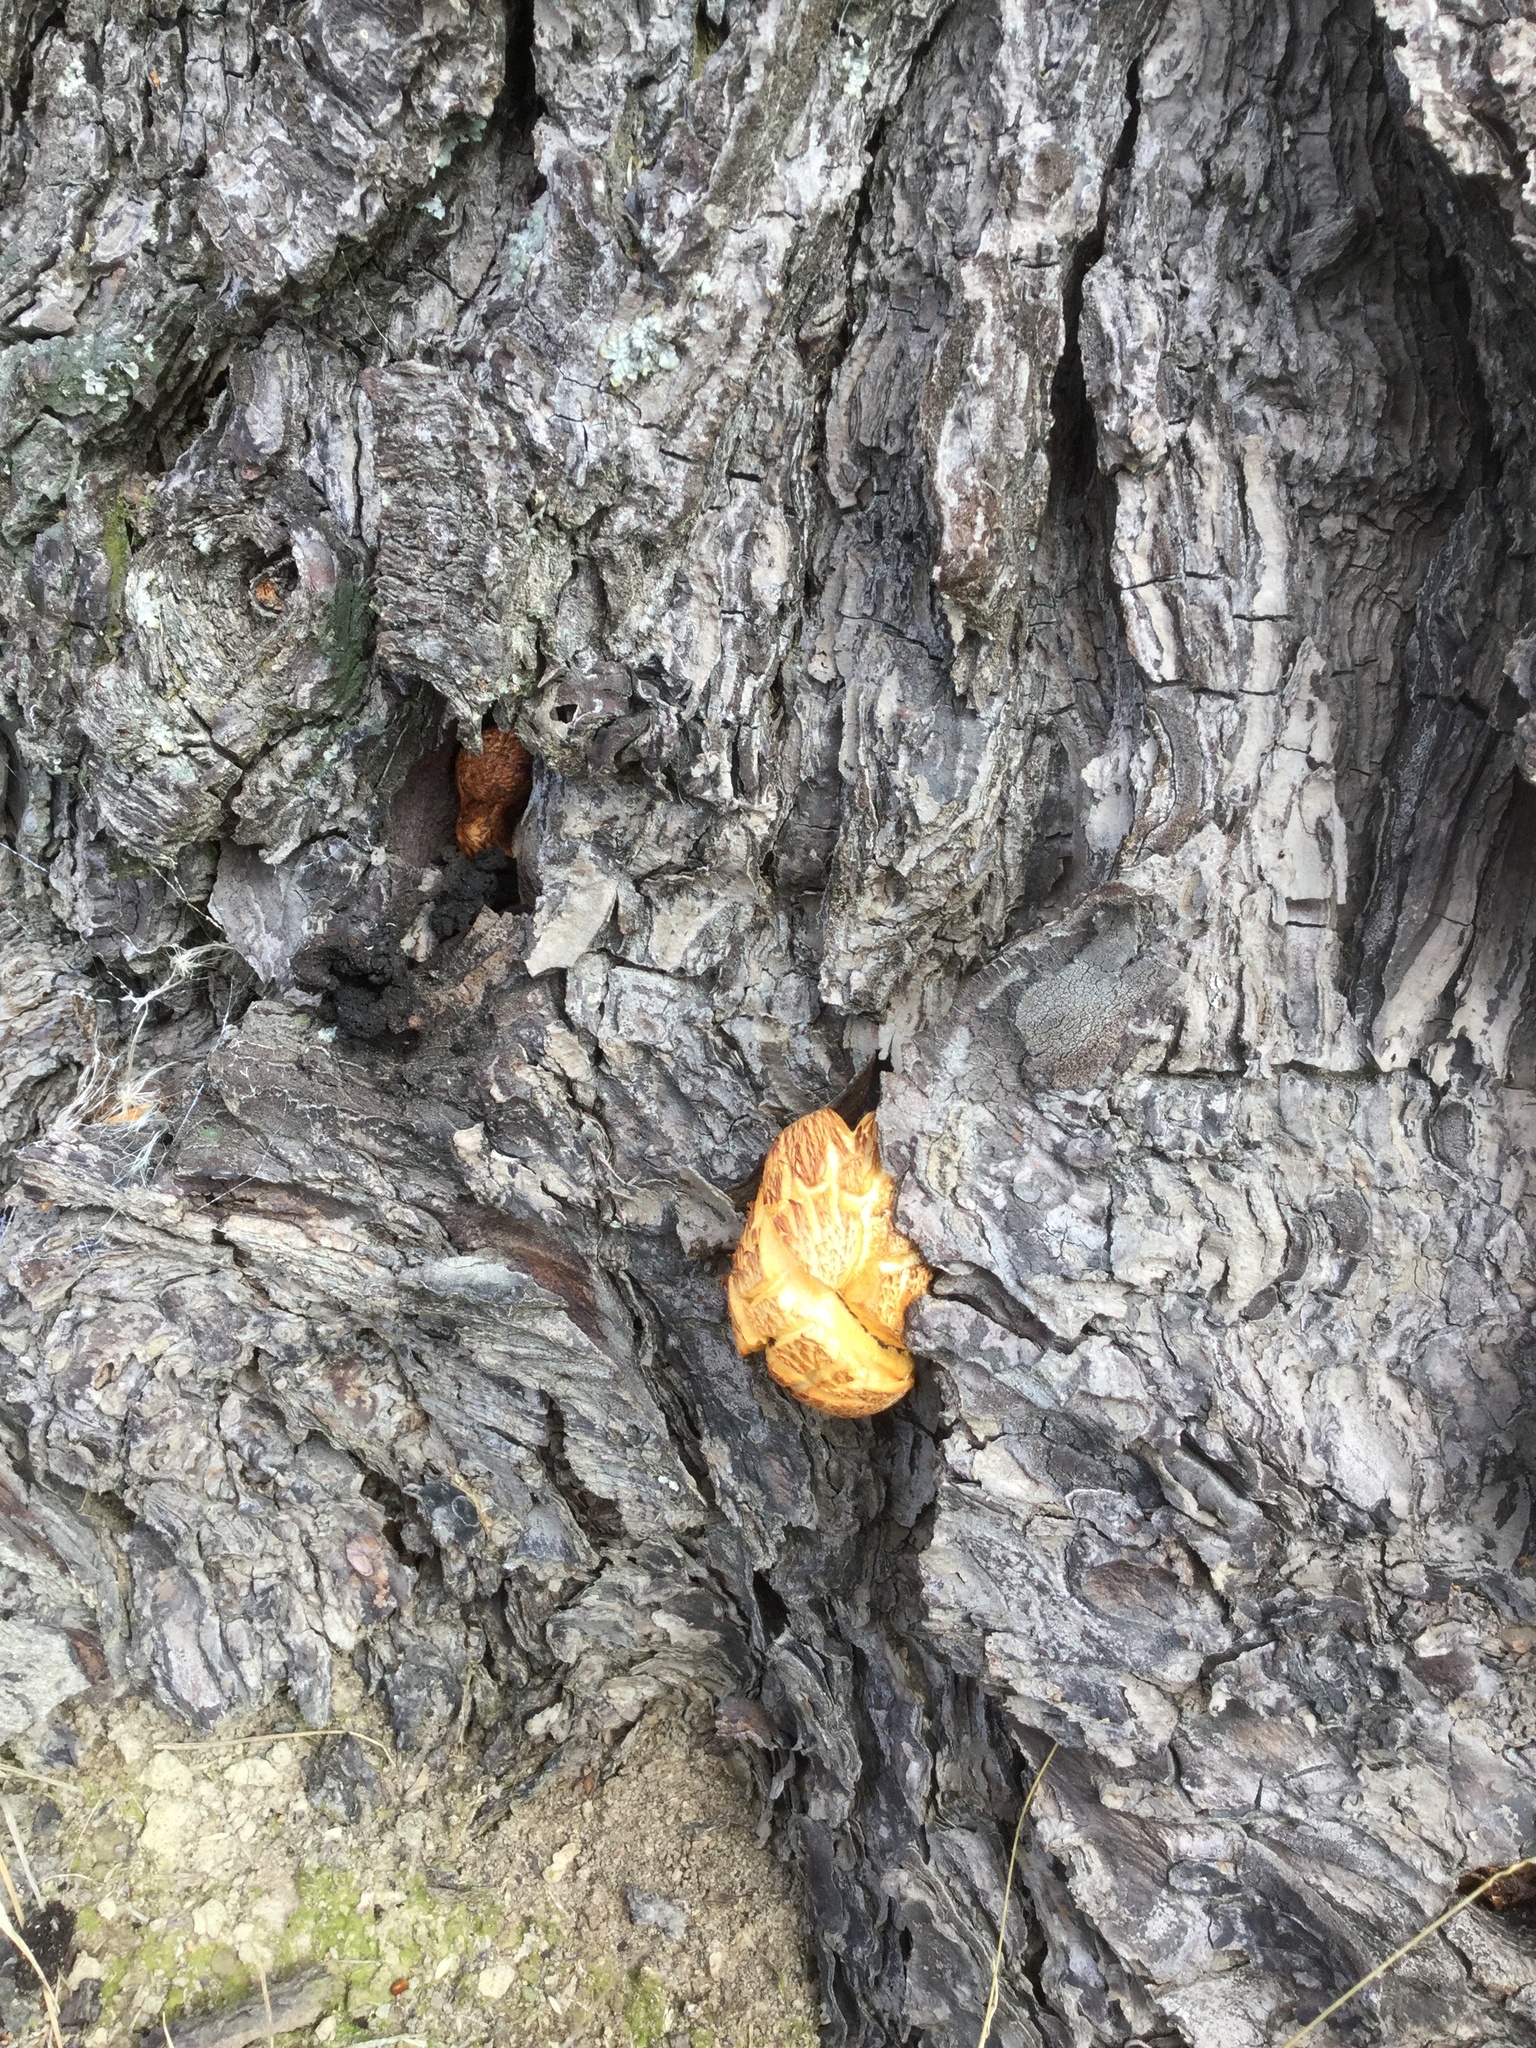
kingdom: Fungi
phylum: Basidiomycota
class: Agaricomycetes
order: Agaricales
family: Hymenogastraceae
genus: Gymnopilus
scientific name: Gymnopilus junonius
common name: Spectacular rustgill
